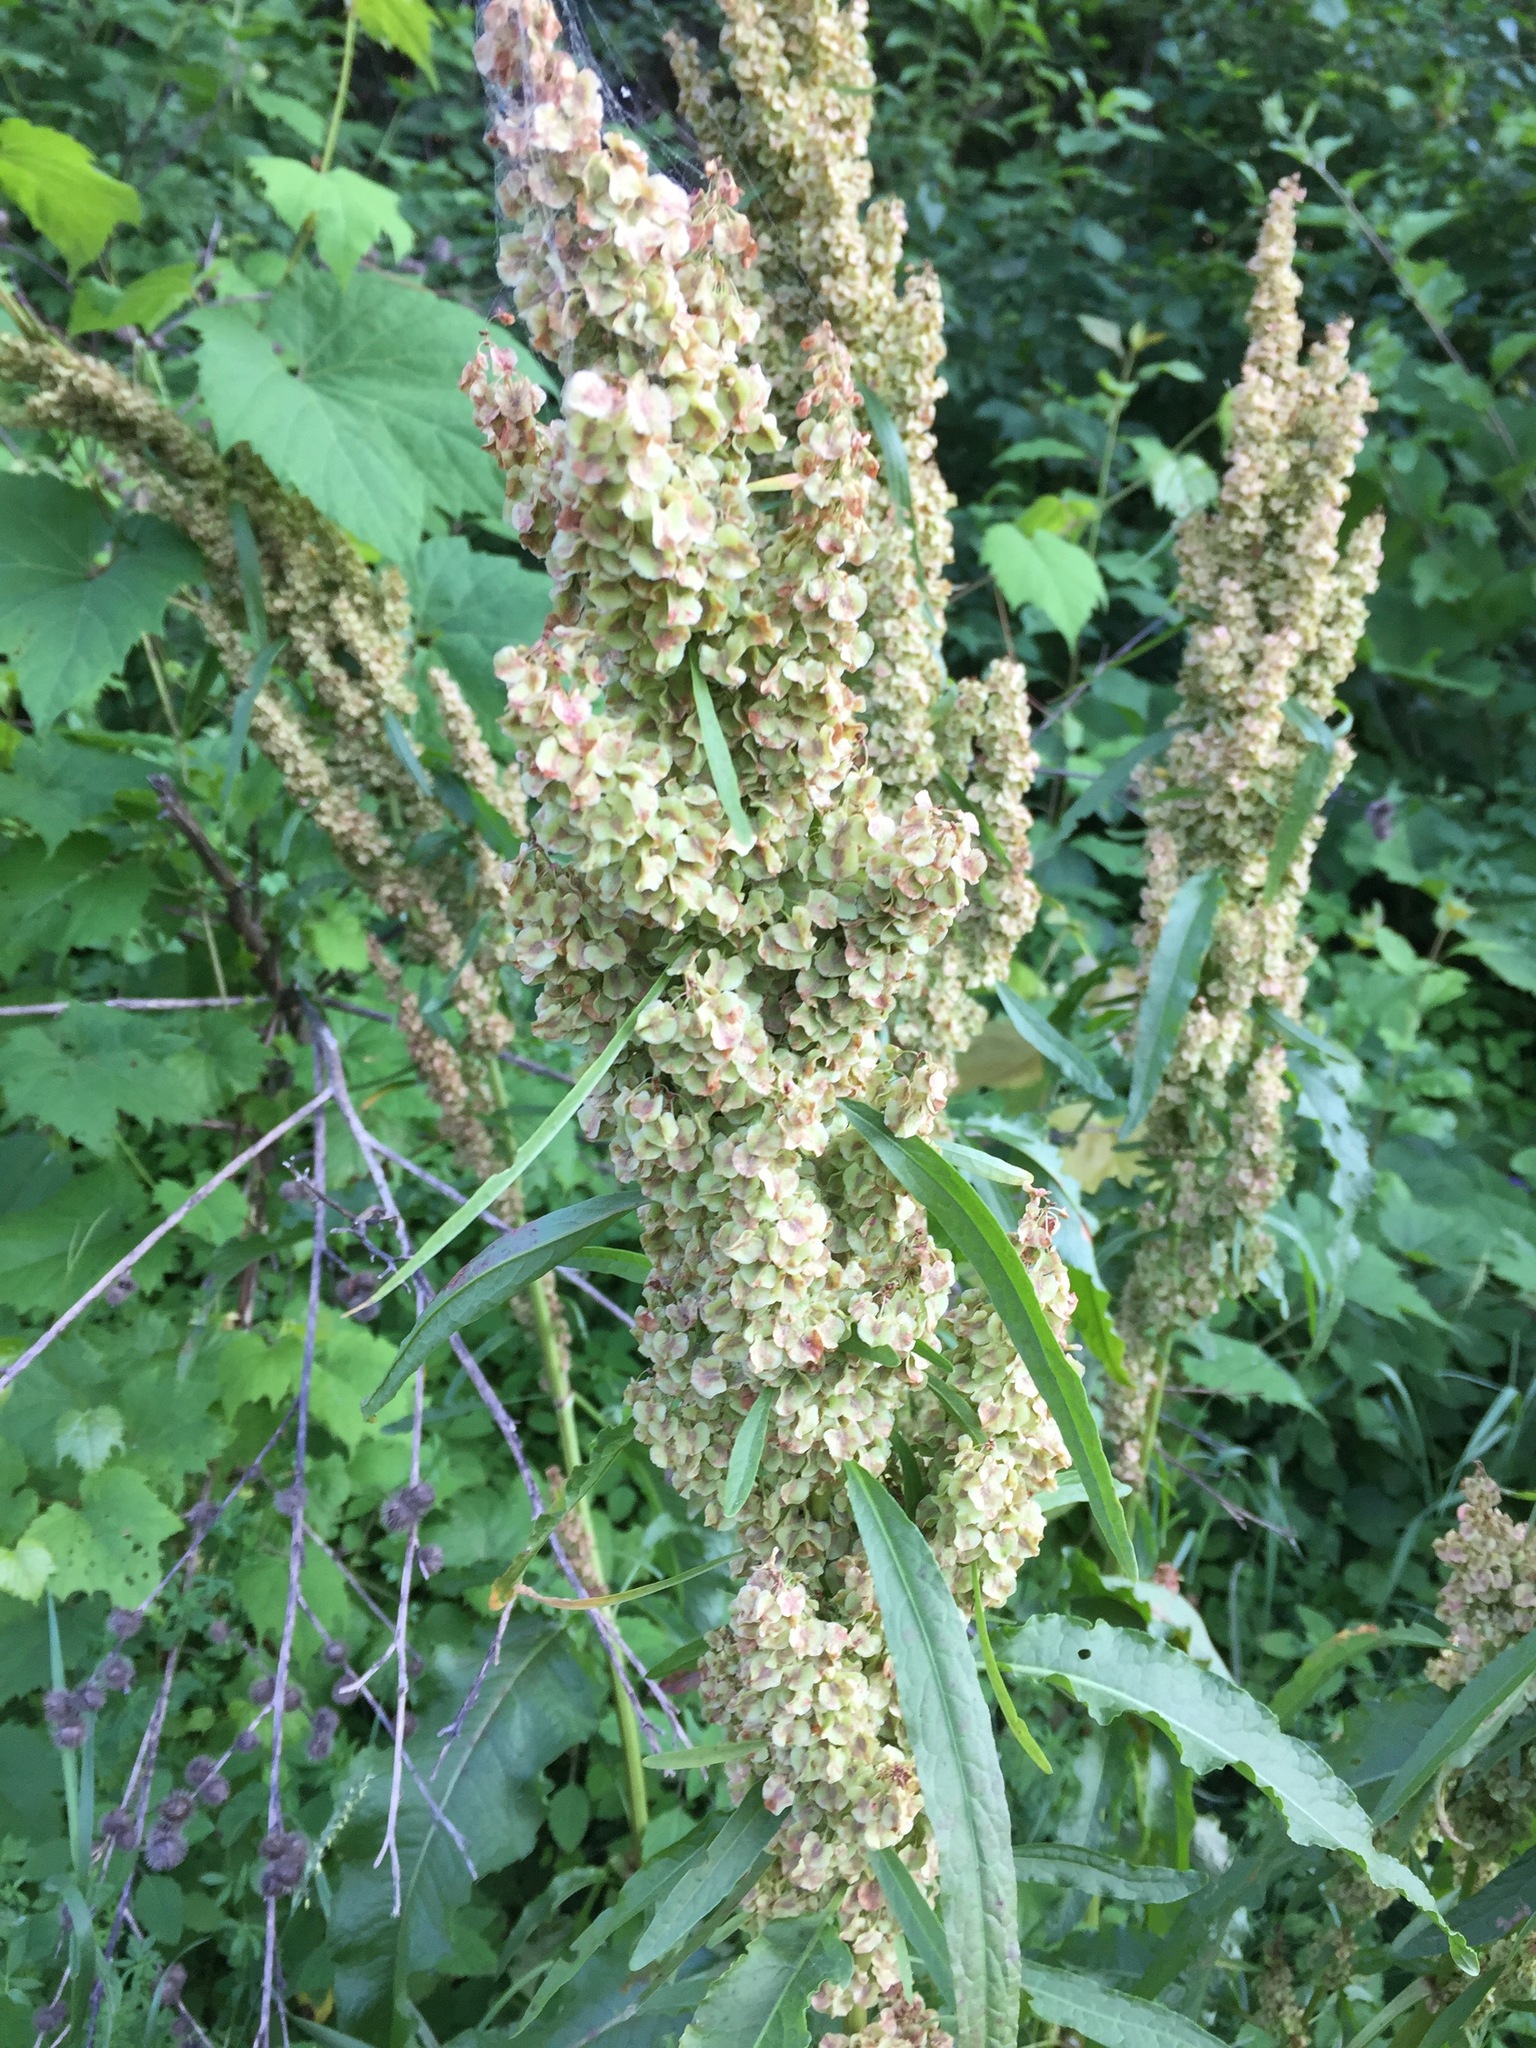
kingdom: Plantae
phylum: Tracheophyta
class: Magnoliopsida
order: Caryophyllales
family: Polygonaceae
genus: Rumex
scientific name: Rumex crispus
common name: Curled dock
